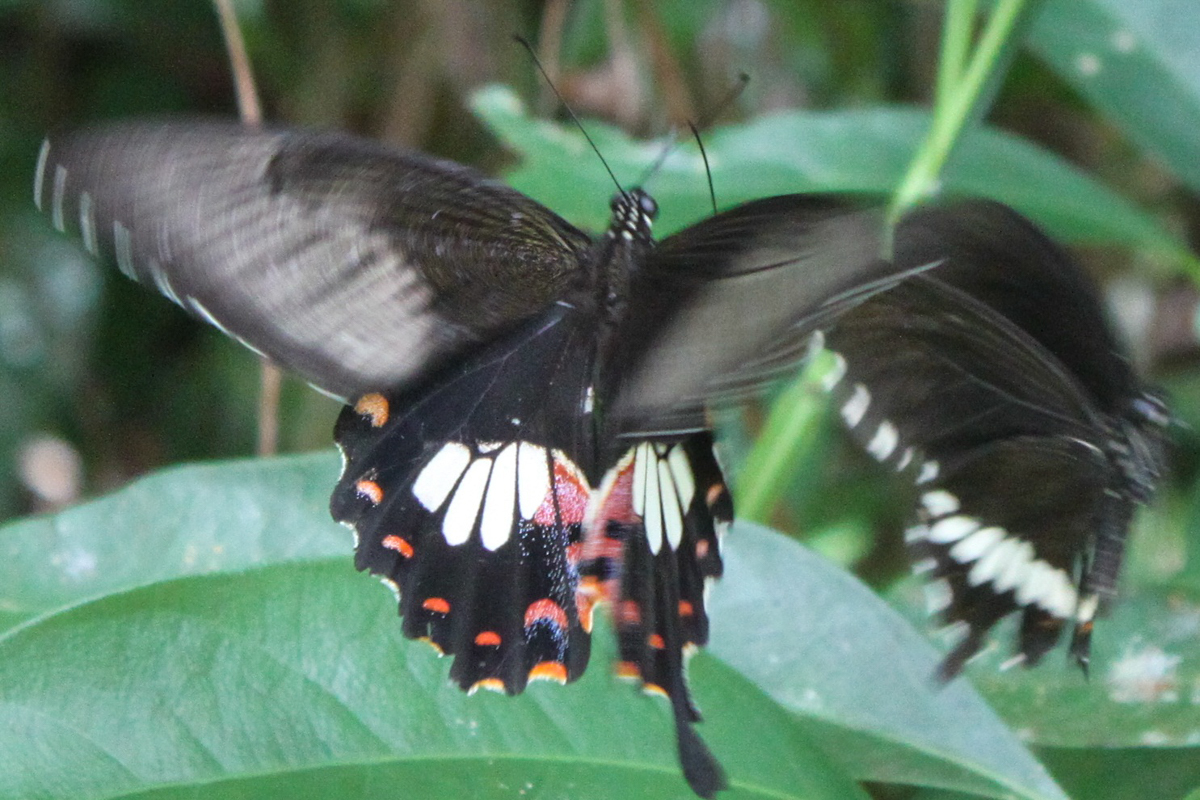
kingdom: Animalia
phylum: Arthropoda
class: Insecta
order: Lepidoptera
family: Papilionidae
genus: Papilio
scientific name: Papilio polytes
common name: Common mormon
